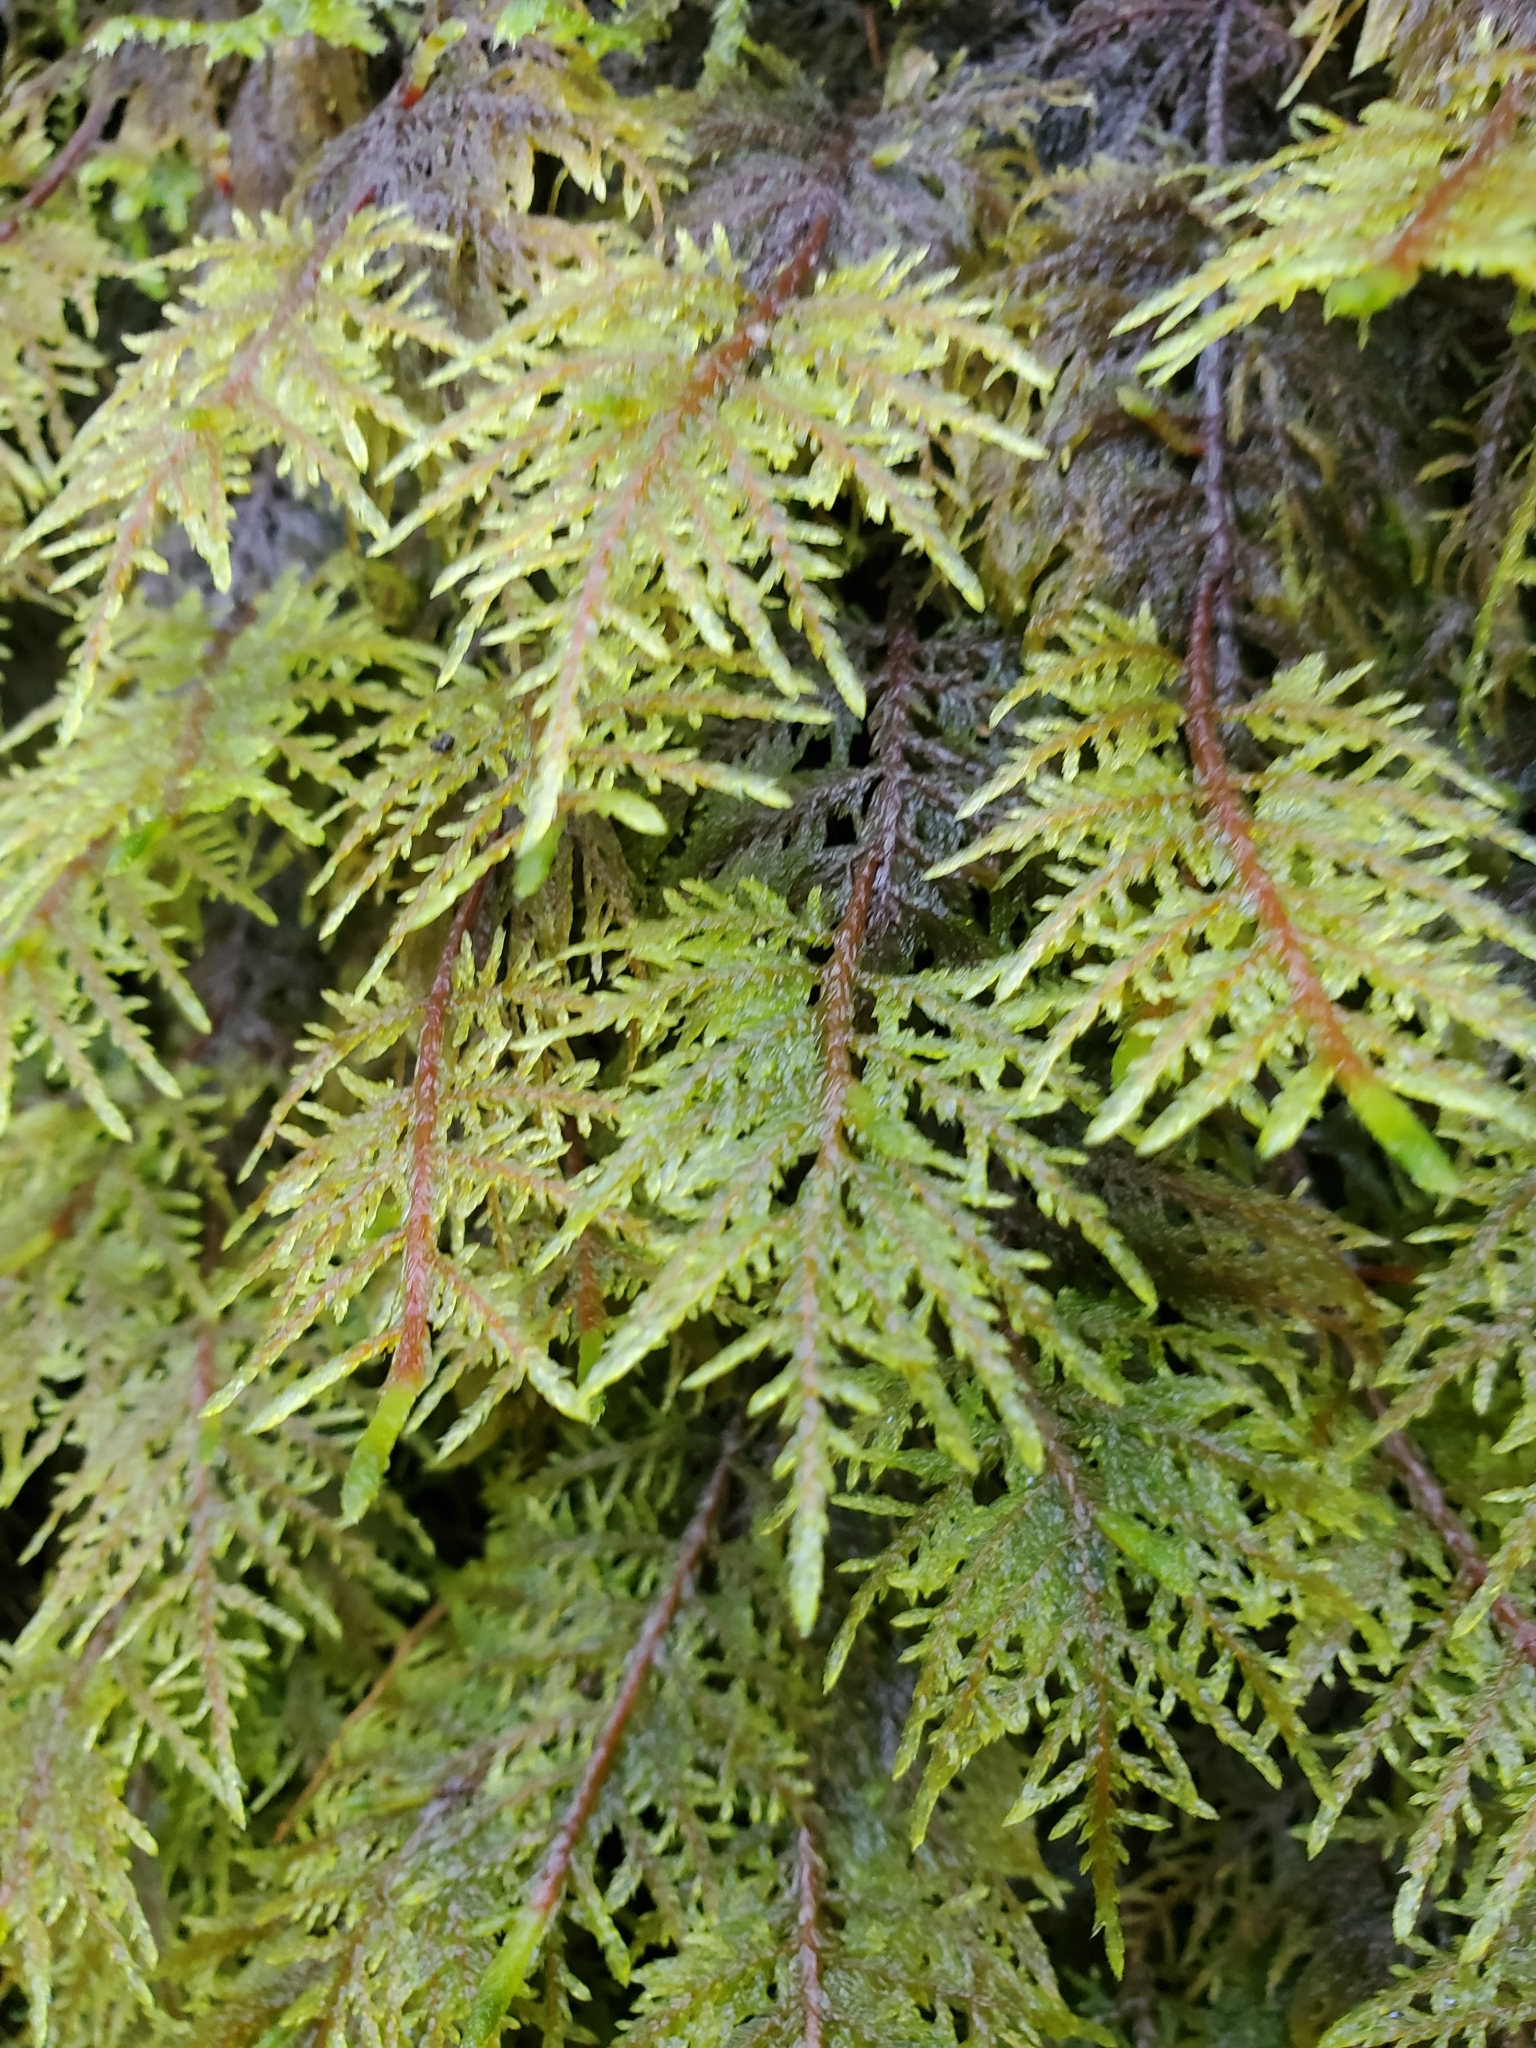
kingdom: Plantae
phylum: Bryophyta
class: Bryopsida
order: Hypnales
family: Hylocomiaceae
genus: Hylocomium
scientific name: Hylocomium splendens
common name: Stairstep moss
